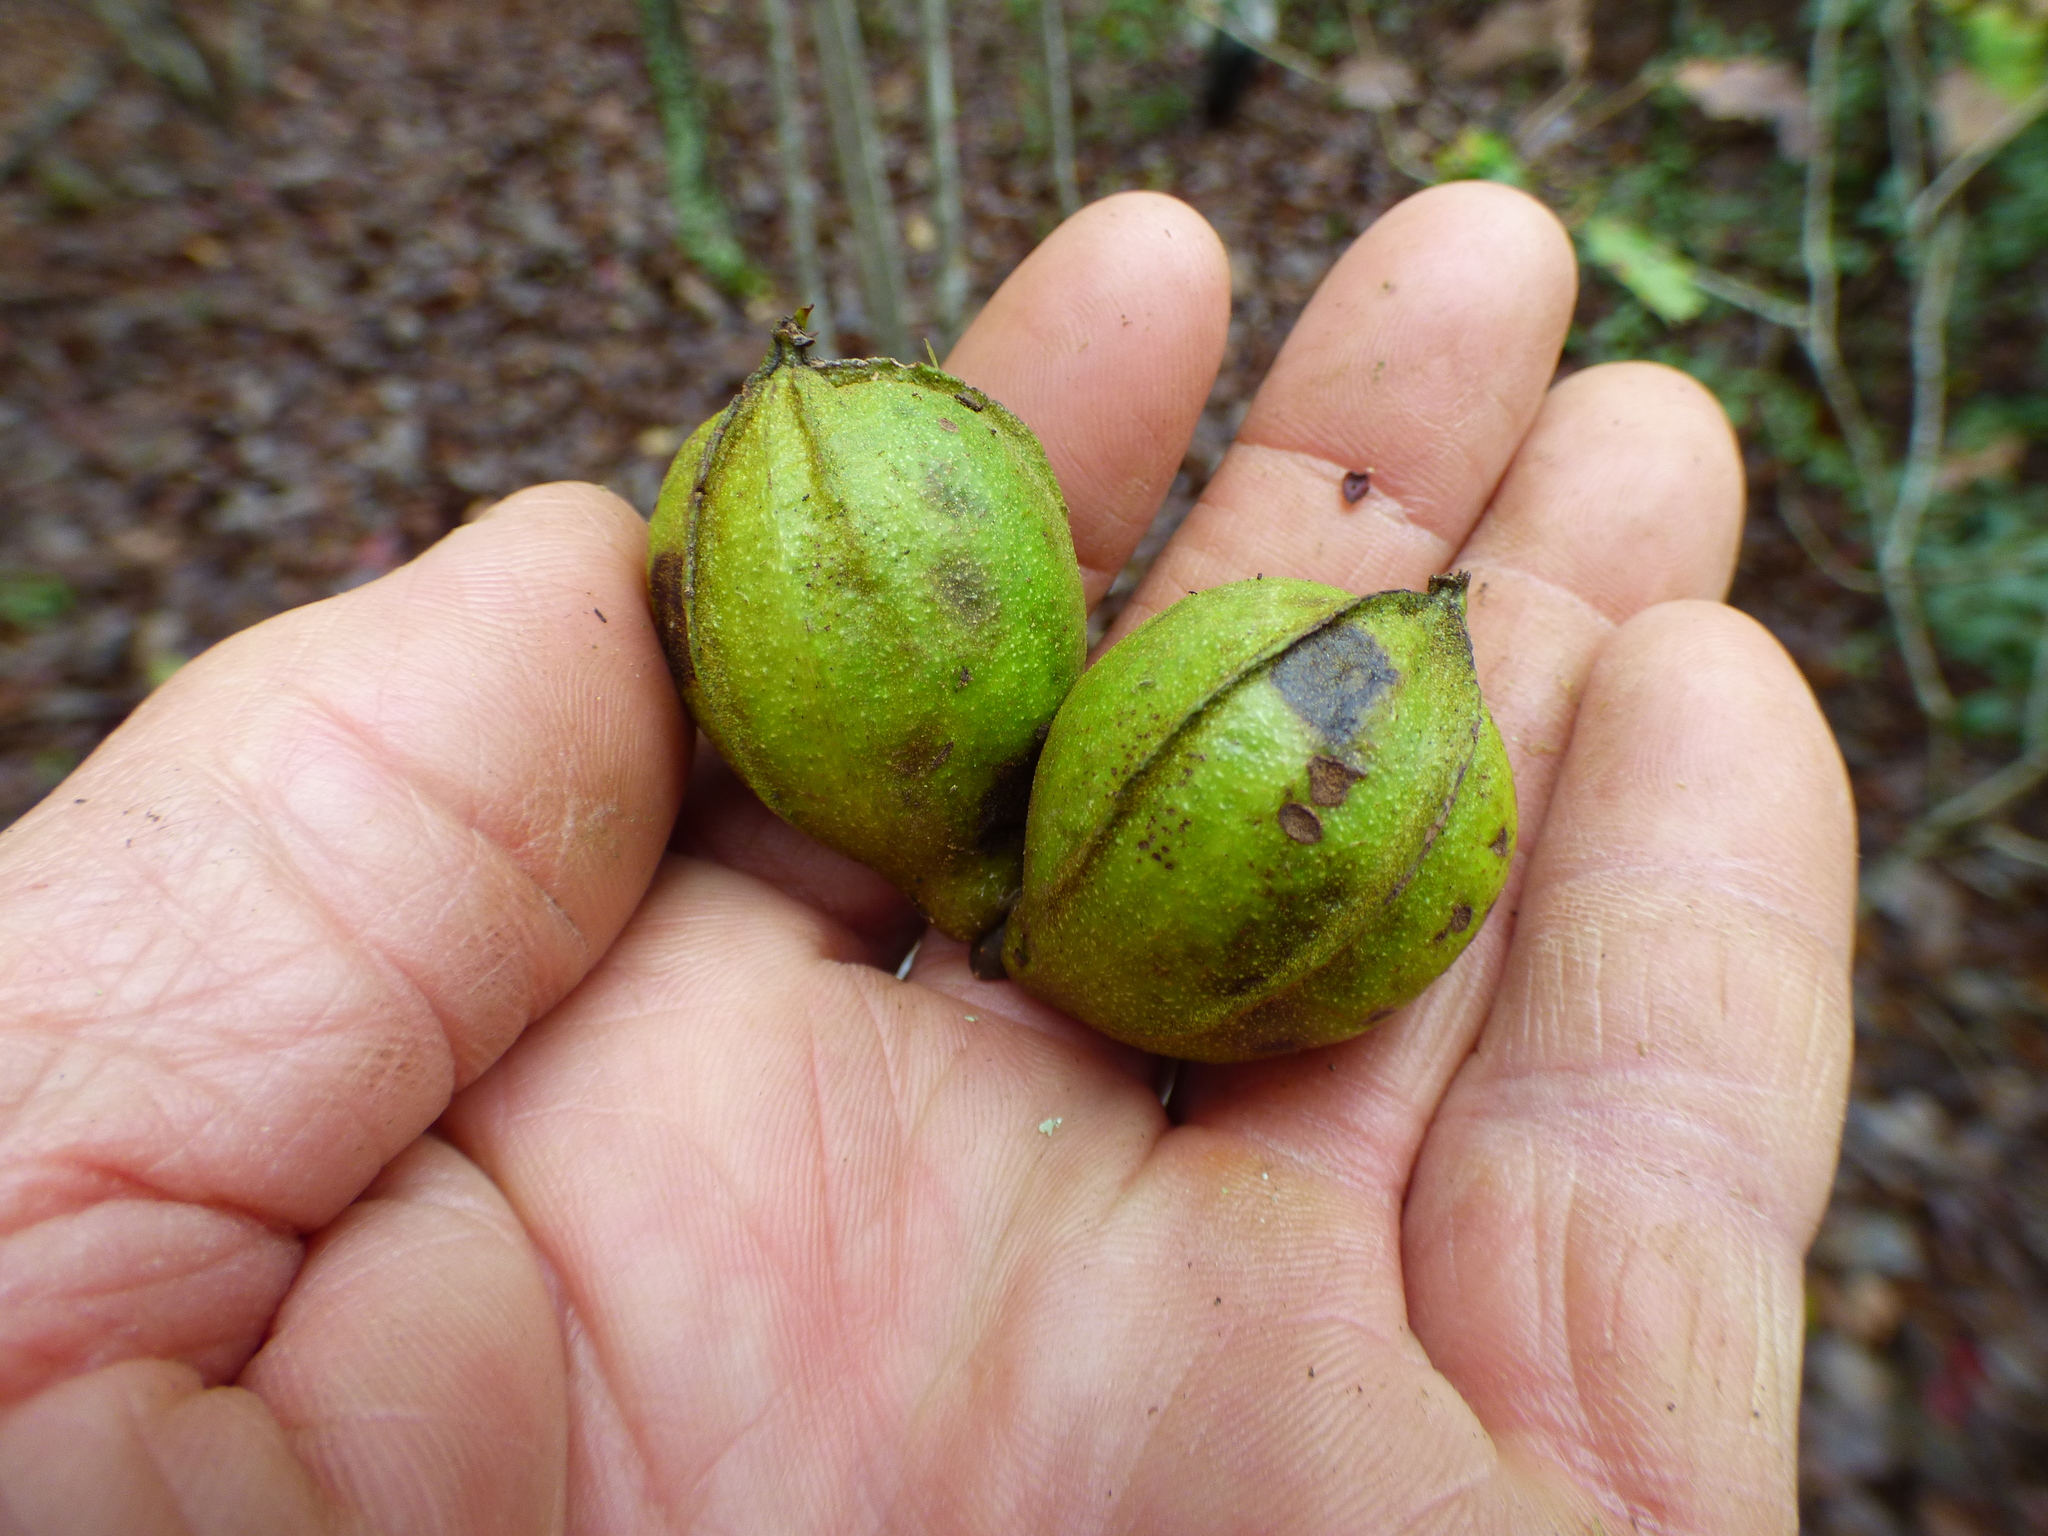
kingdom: Plantae
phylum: Tracheophyta
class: Magnoliopsida
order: Fagales
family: Juglandaceae
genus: Carya
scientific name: Carya glabra
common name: Pignut hickory
